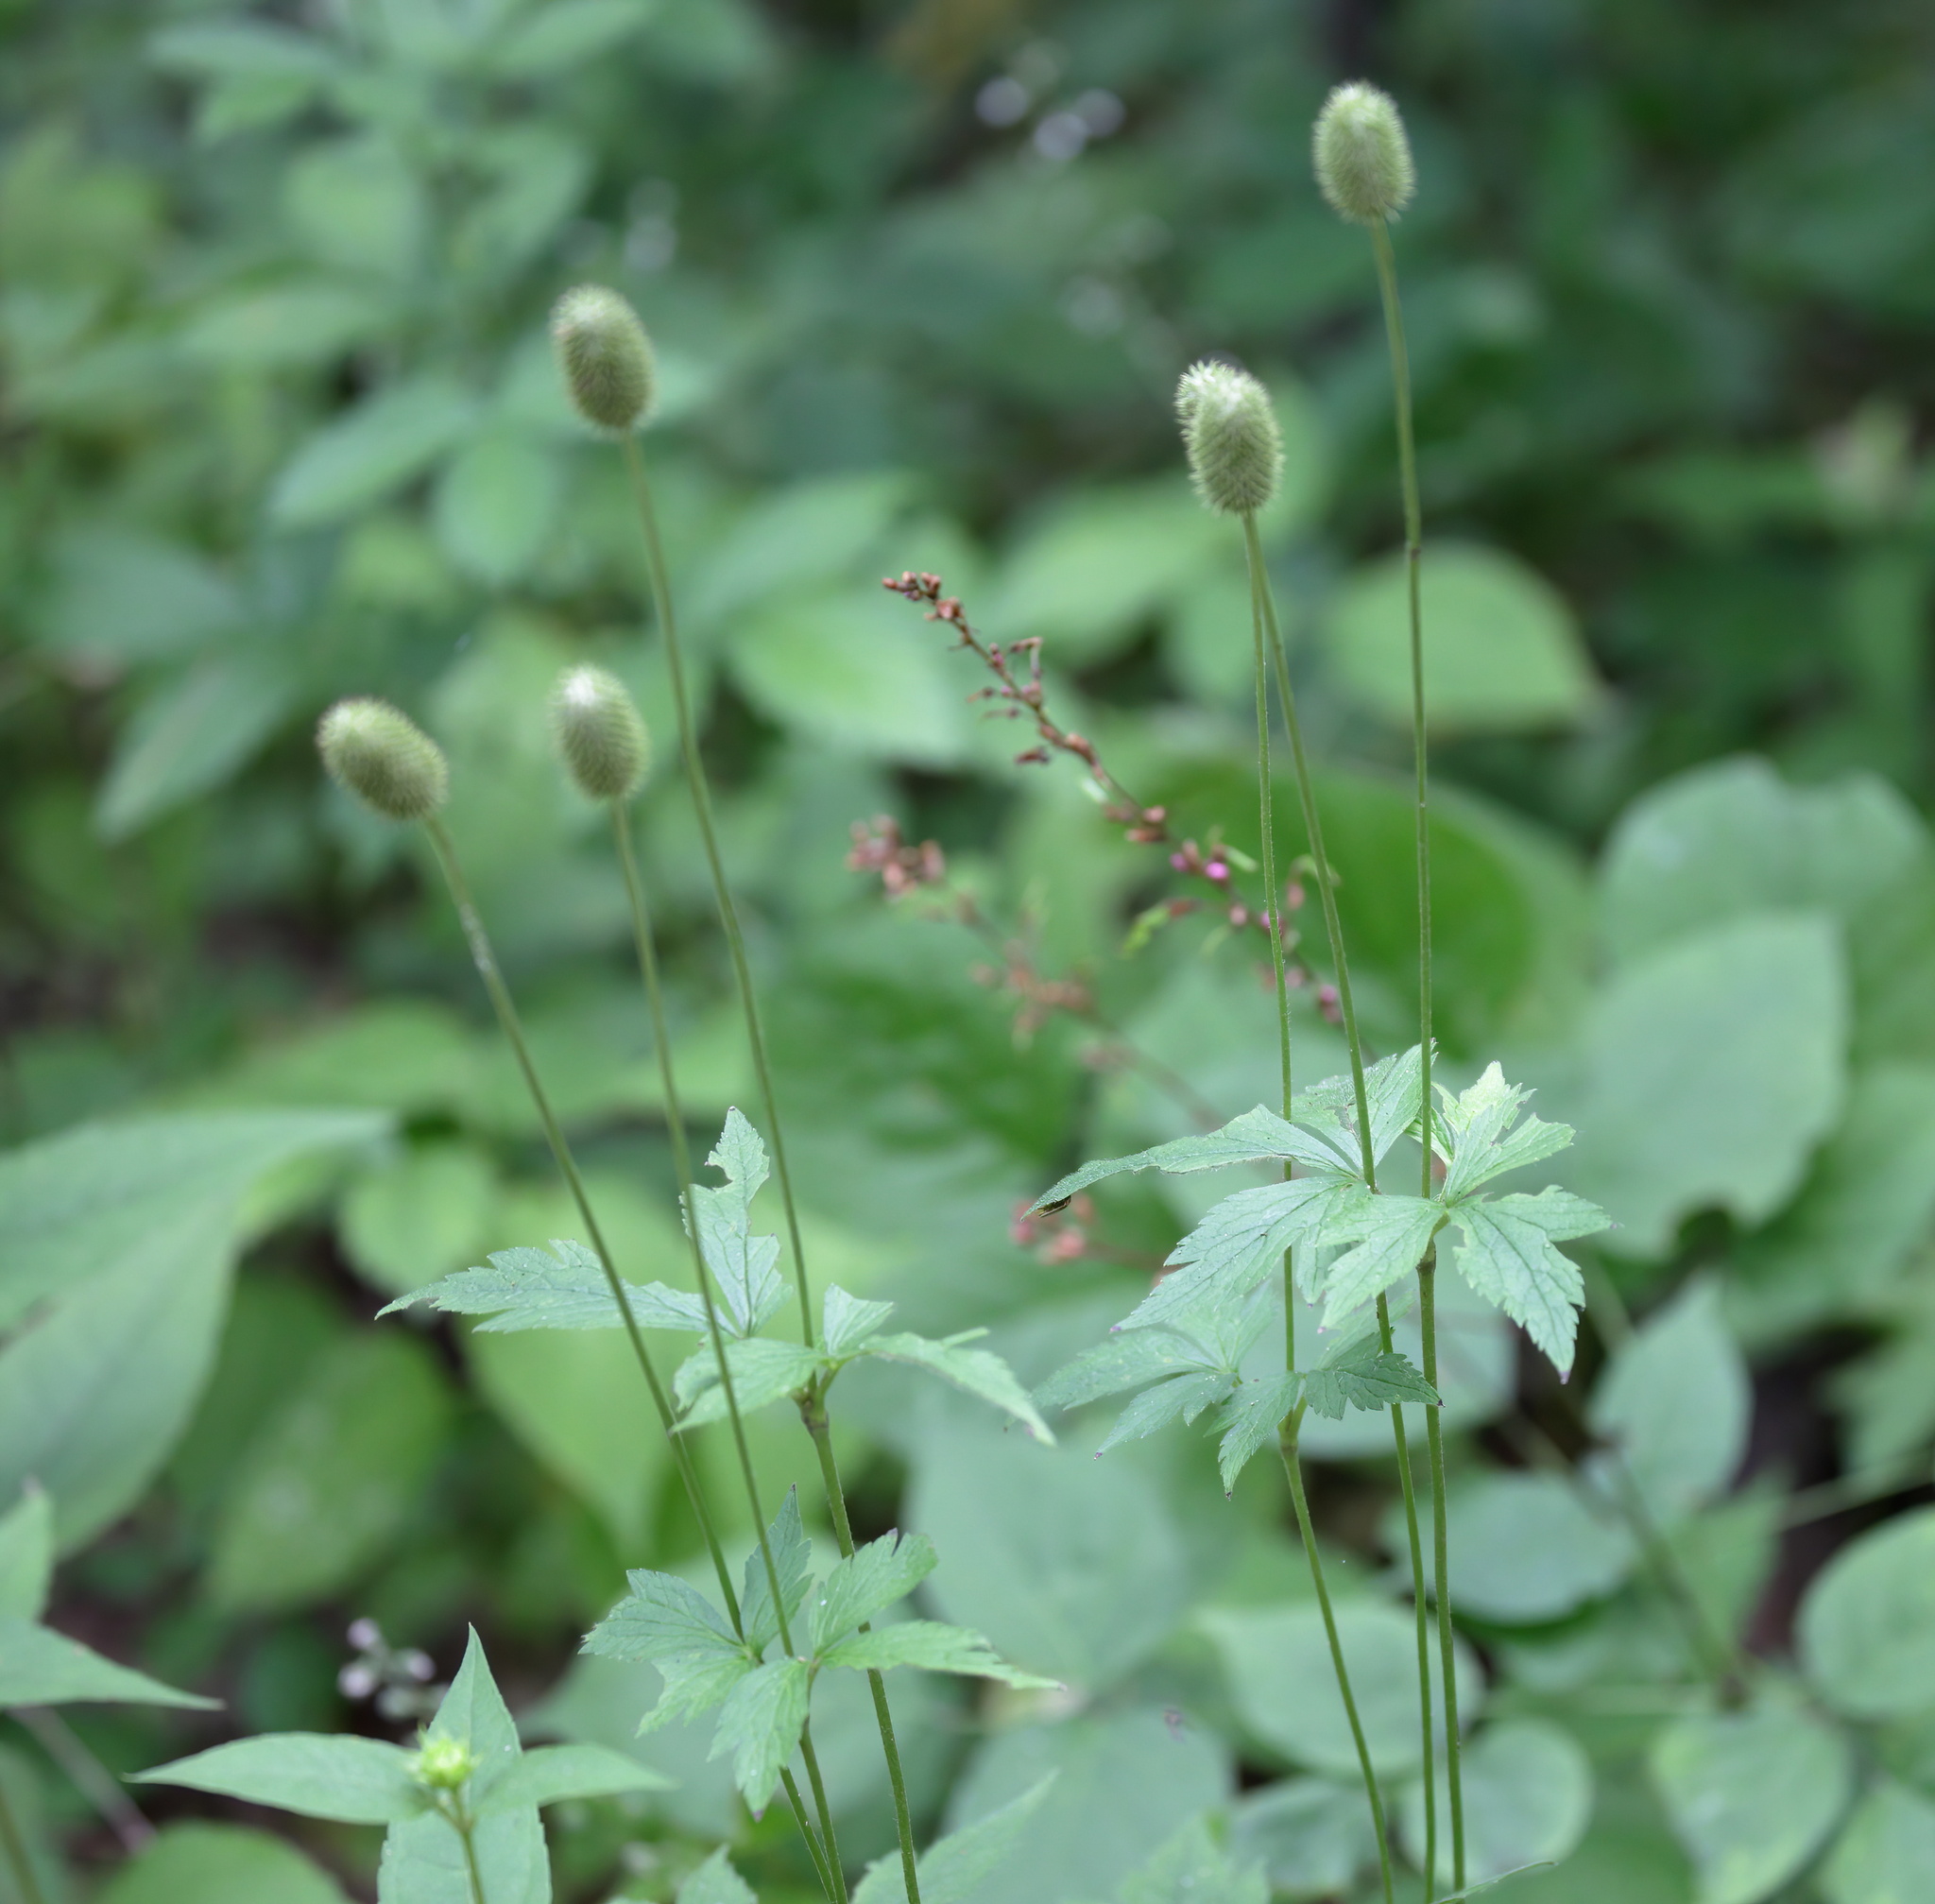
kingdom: Plantae
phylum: Tracheophyta
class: Magnoliopsida
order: Ranunculales
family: Ranunculaceae
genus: Anemone
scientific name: Anemone virginiana
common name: Tall anemone
